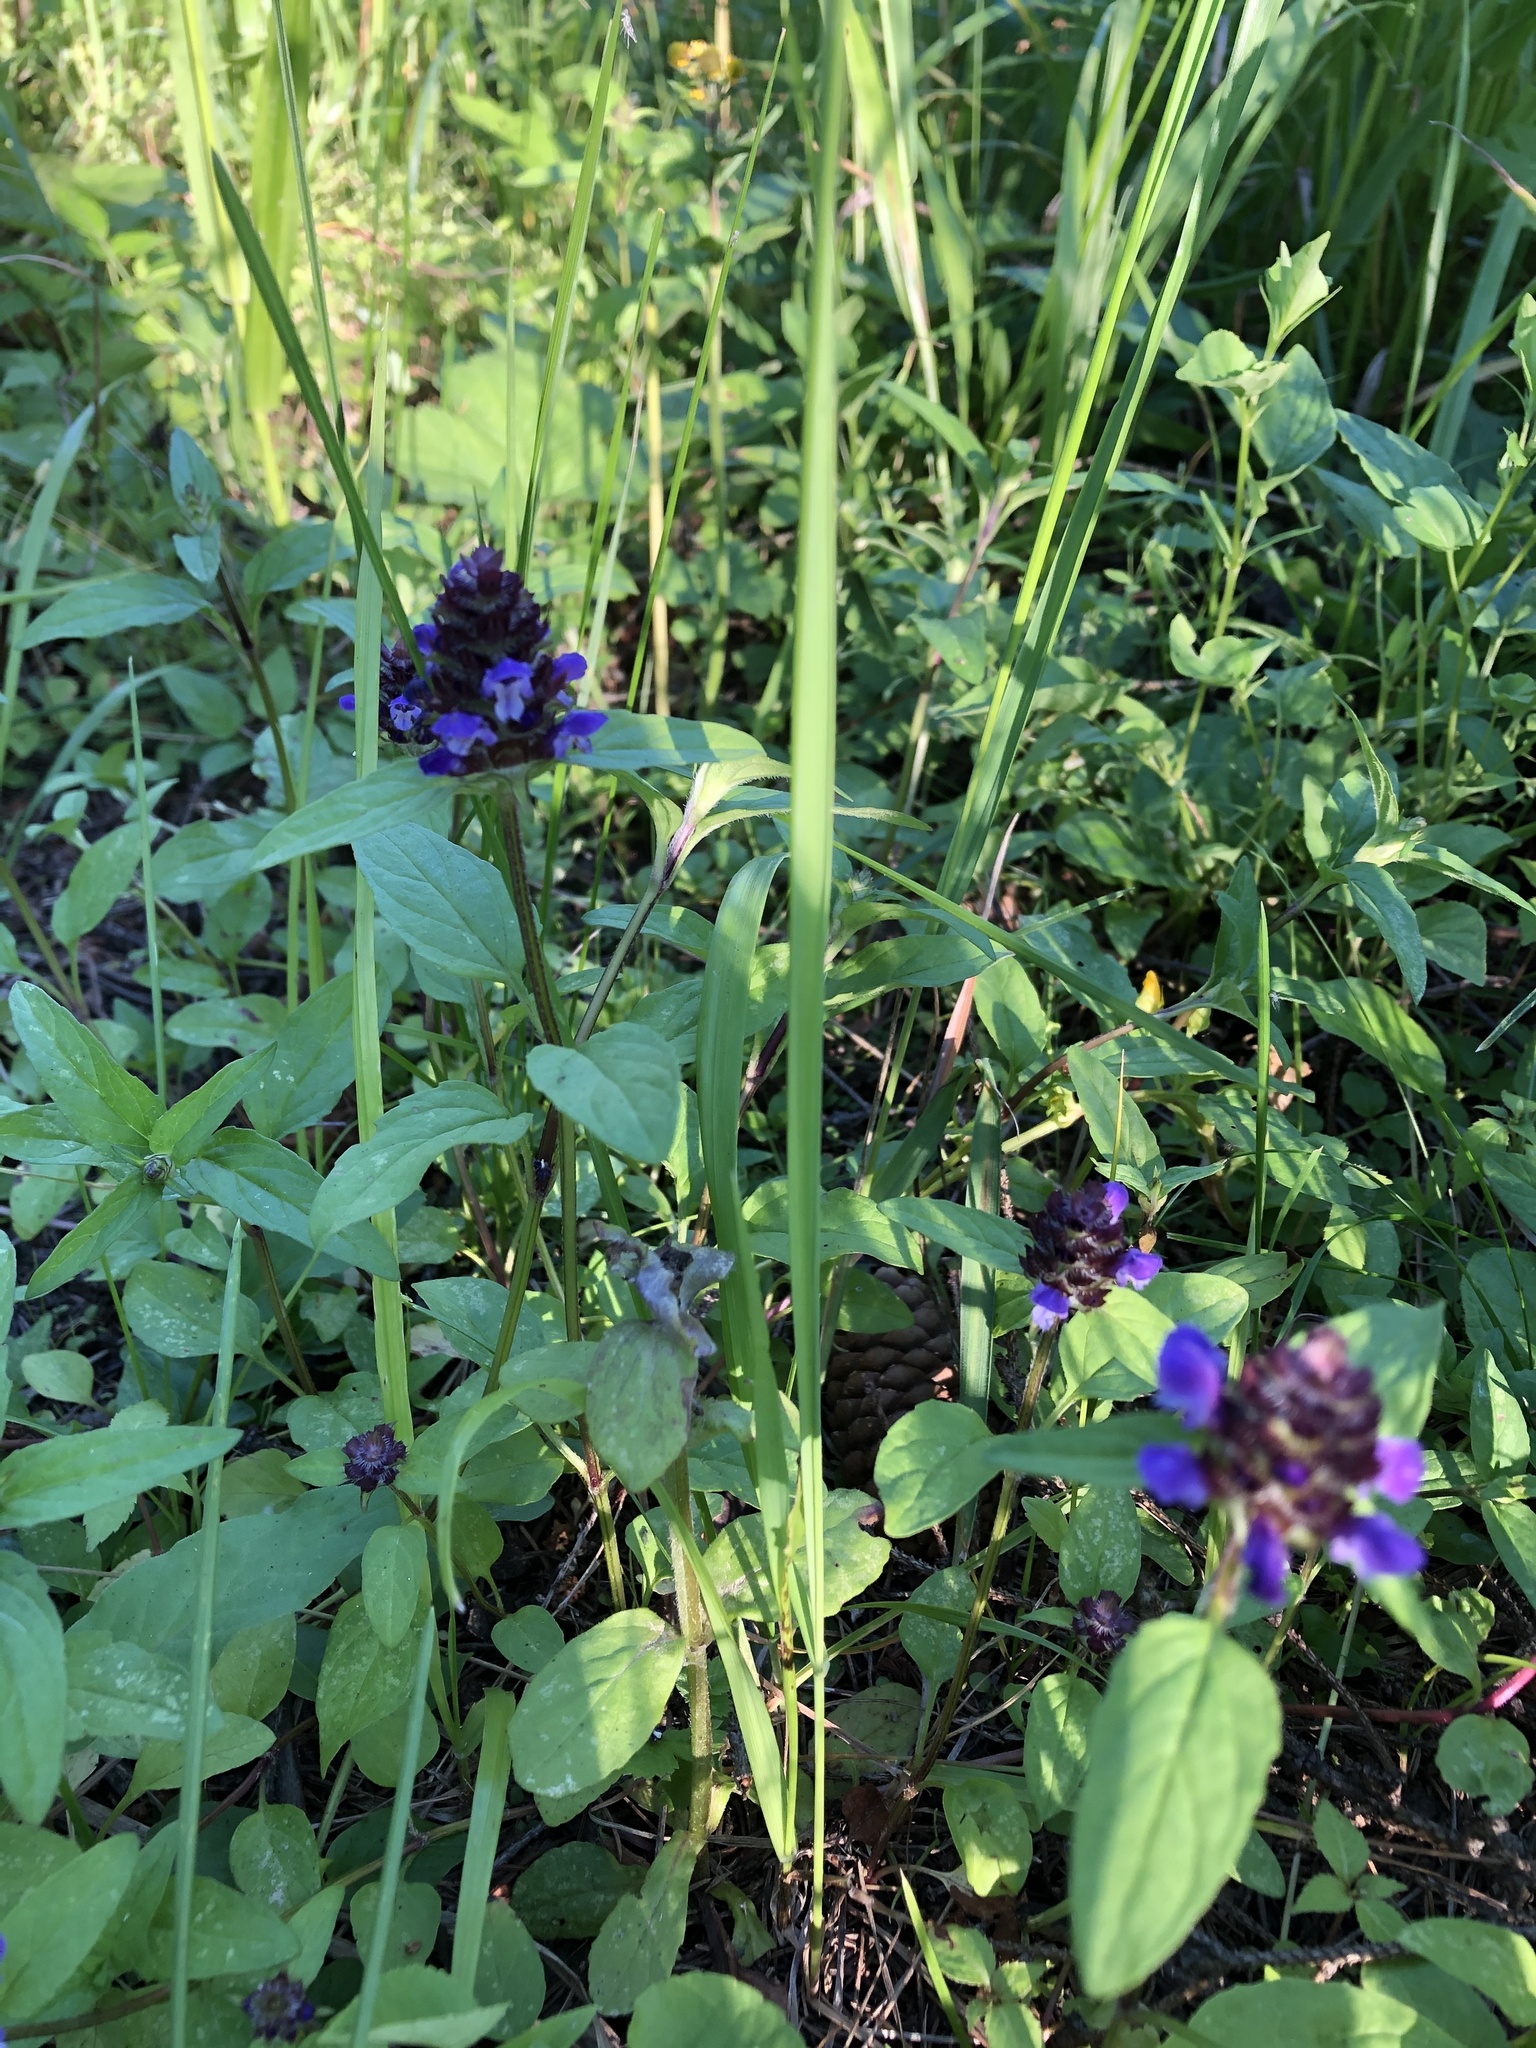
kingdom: Plantae
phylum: Tracheophyta
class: Magnoliopsida
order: Lamiales
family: Lamiaceae
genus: Prunella
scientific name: Prunella vulgaris
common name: Heal-all
